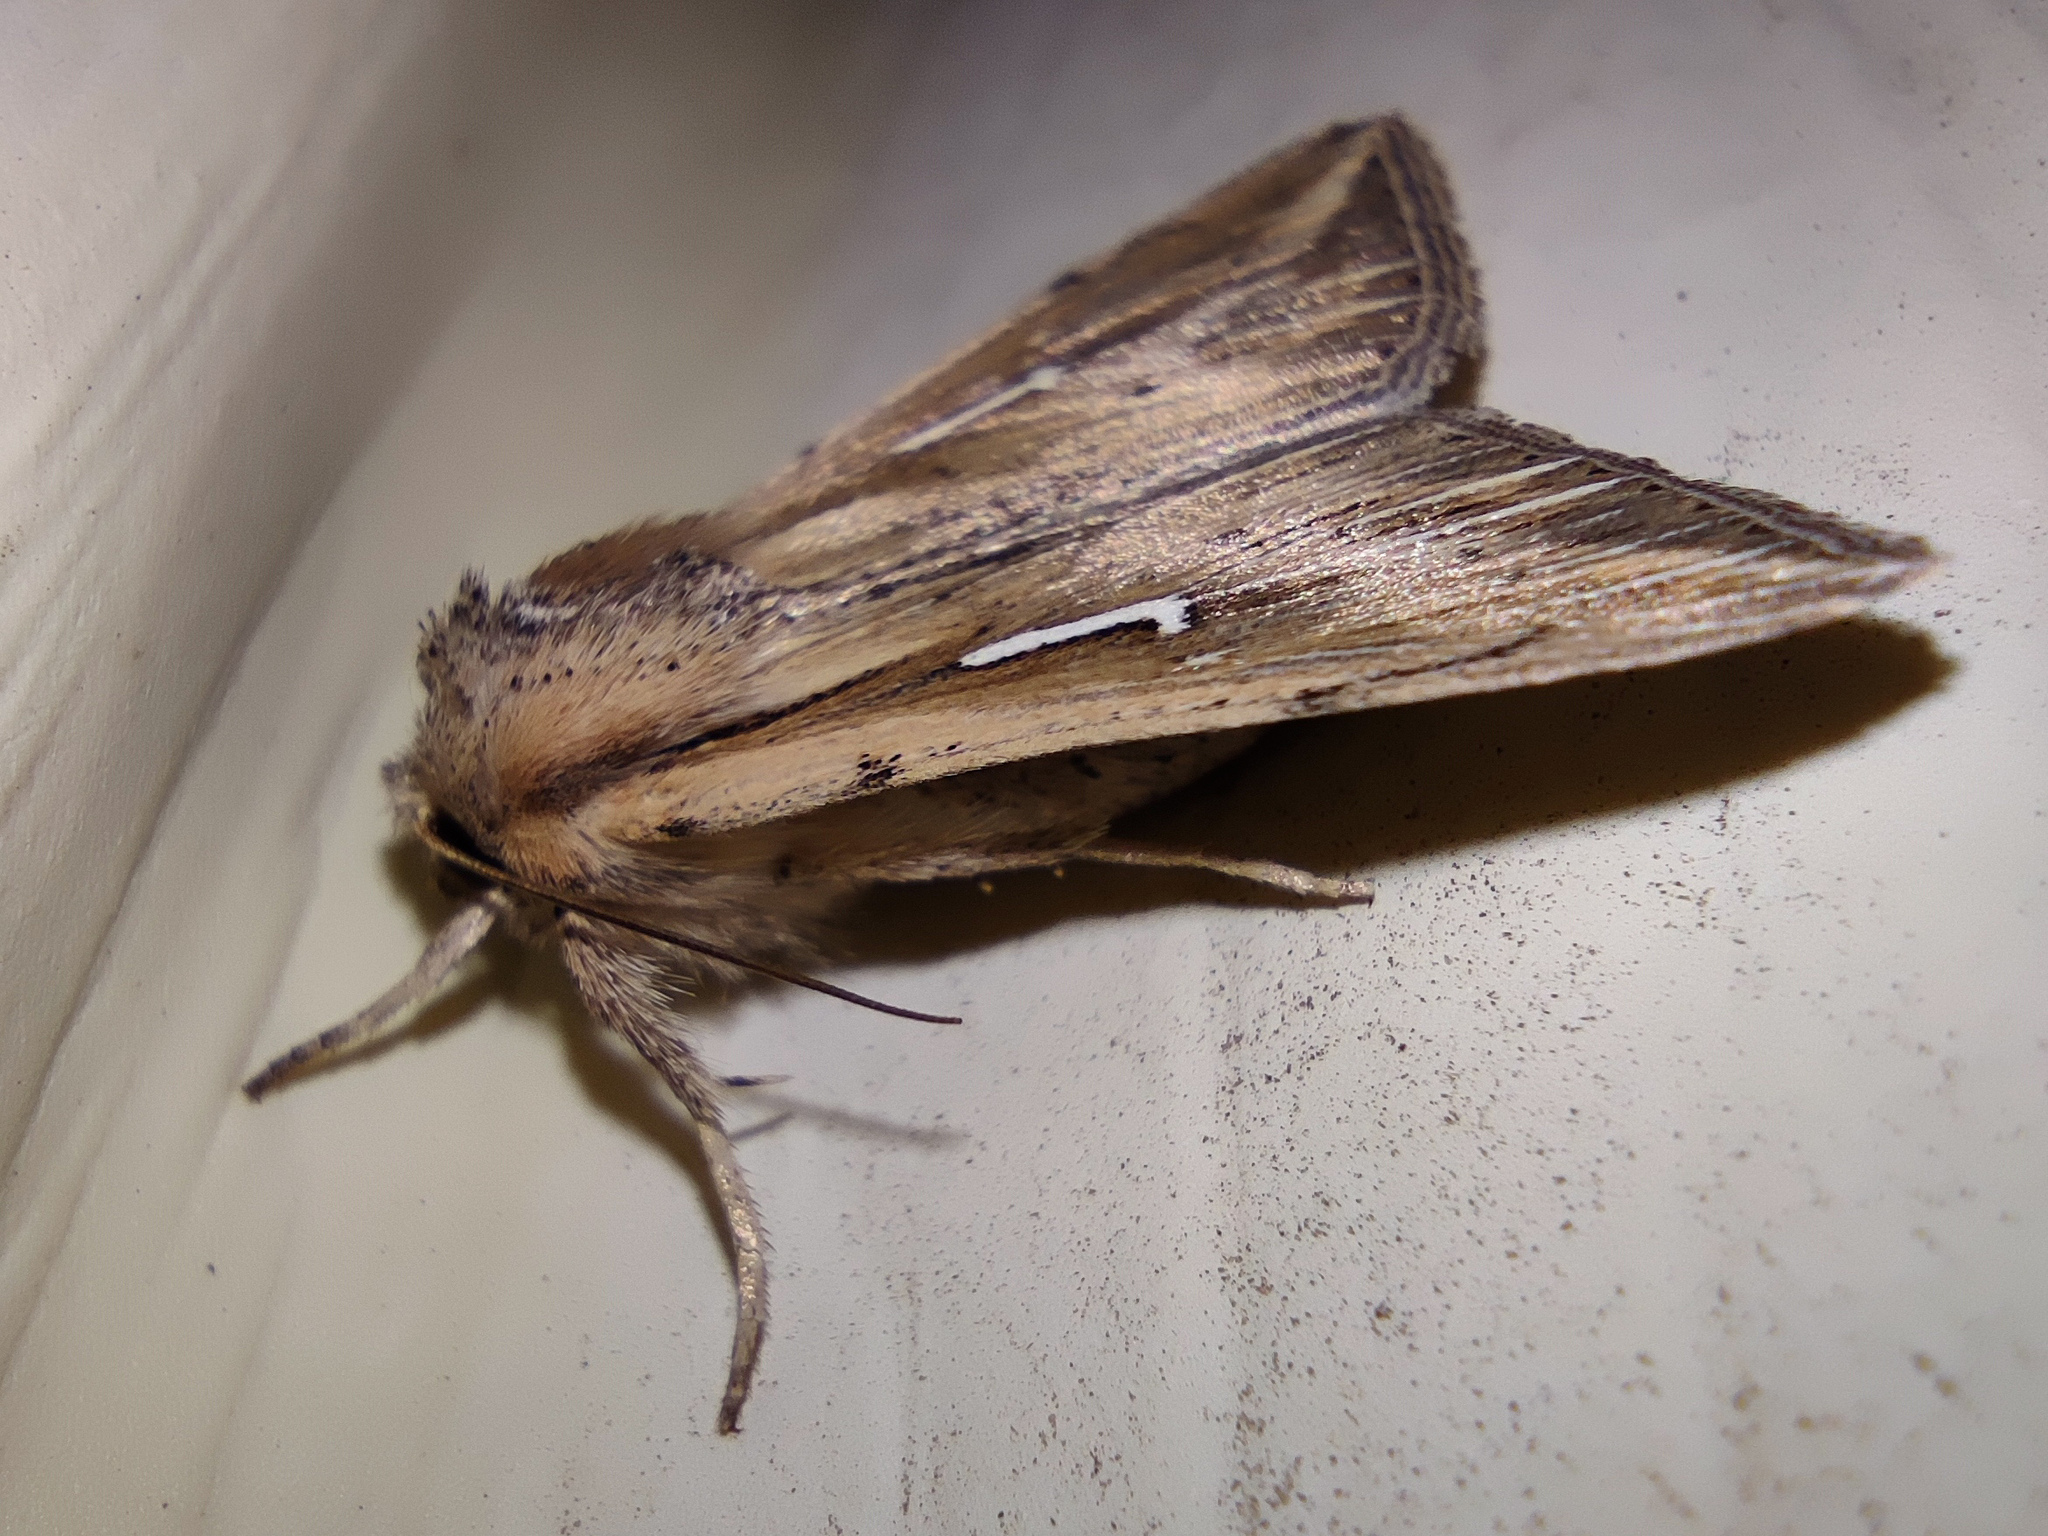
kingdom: Animalia
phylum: Arthropoda
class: Insecta
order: Lepidoptera
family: Noctuidae
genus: Mythimna
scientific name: Mythimna l-album
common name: L-album wainscot
